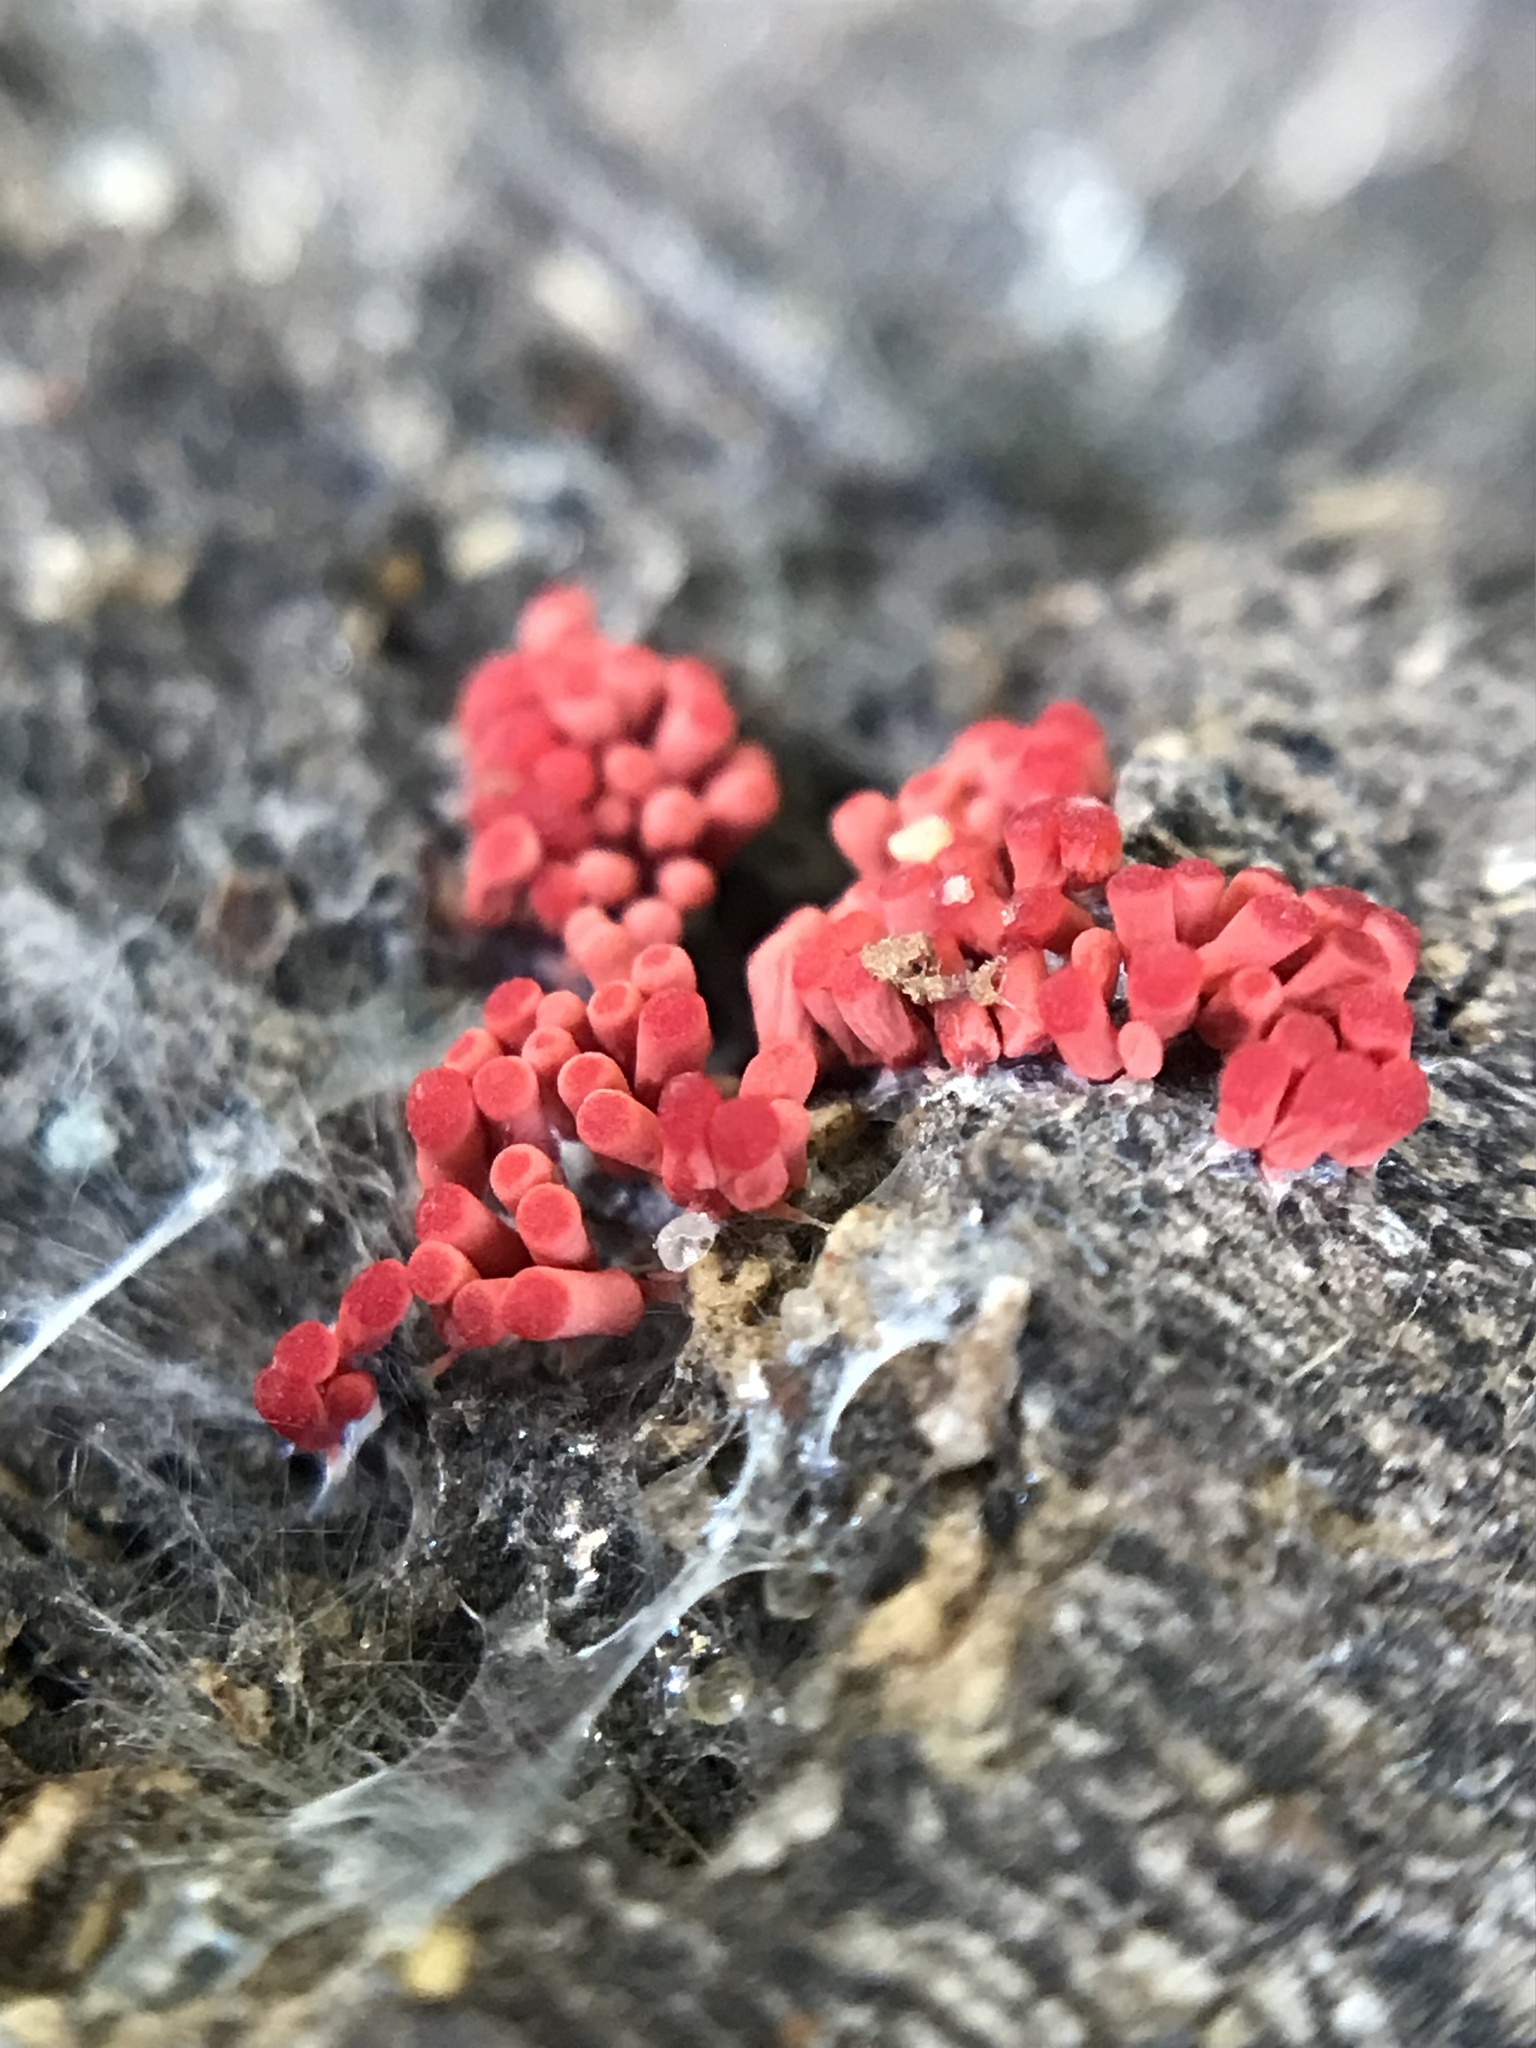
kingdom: Protozoa
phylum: Mycetozoa
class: Myxomycetes
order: Trichiales
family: Arcyriaceae
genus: Arcyria
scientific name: Arcyria denudata
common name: Carnival candy slime mold
